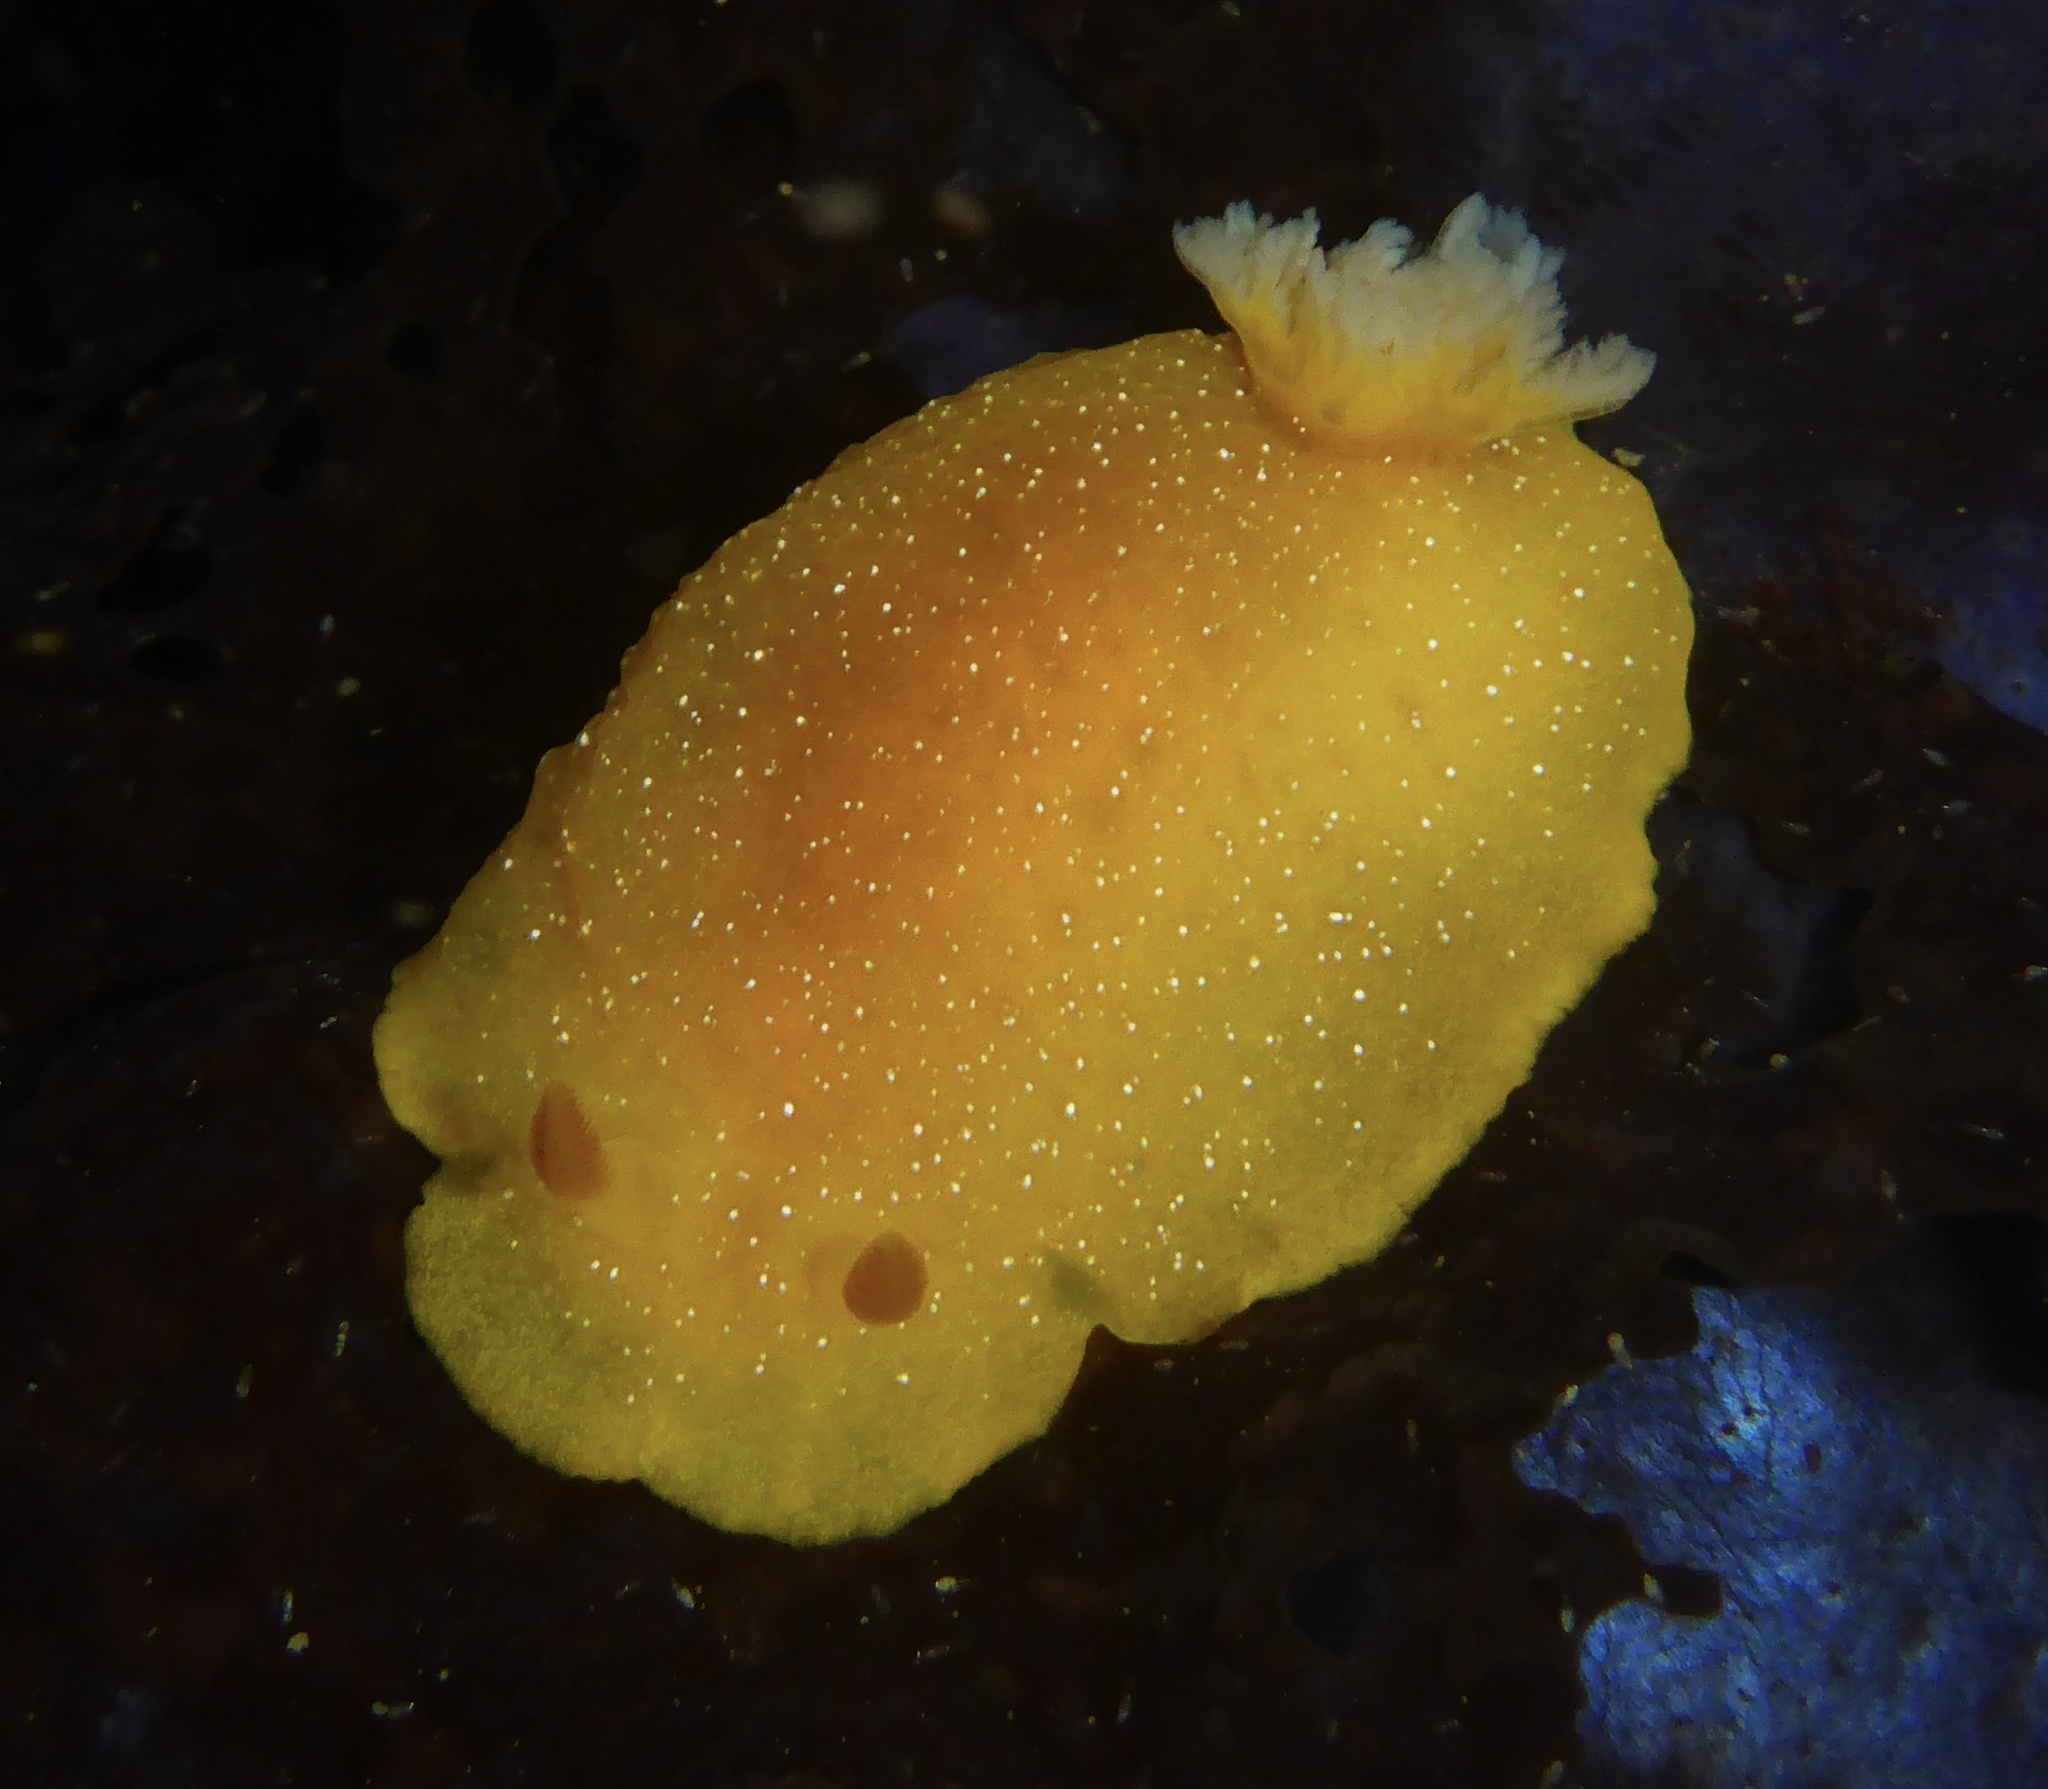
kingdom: Animalia
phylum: Mollusca
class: Gastropoda
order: Nudibranchia
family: Dendrodorididae
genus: Doriopsilla
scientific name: Doriopsilla albopunctata
